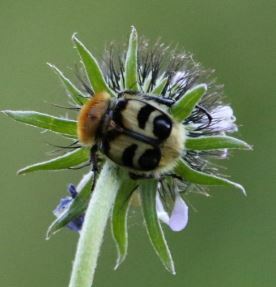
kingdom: Animalia
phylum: Arthropoda
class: Insecta
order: Coleoptera
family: Scarabaeidae
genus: Trichius
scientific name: Trichius fasciatus
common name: Bee beetle
